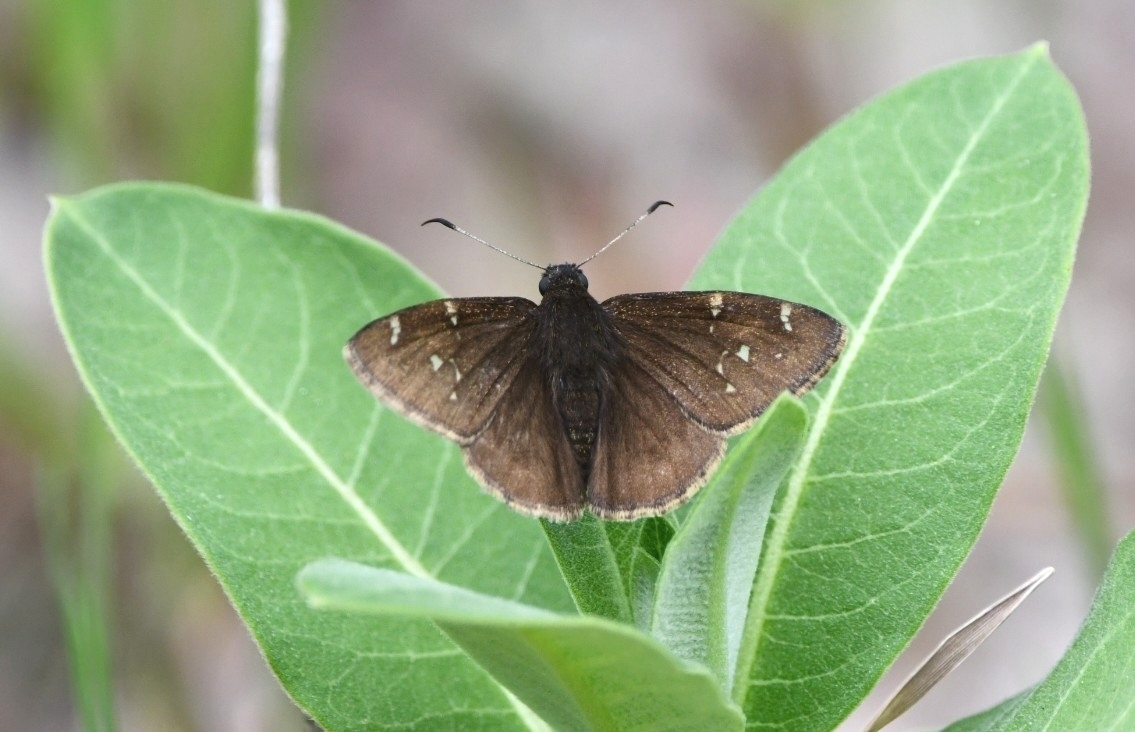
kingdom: Animalia
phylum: Arthropoda
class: Insecta
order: Lepidoptera
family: Hesperiidae
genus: Thorybes
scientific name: Thorybes pylades
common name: Northern cloudywing
